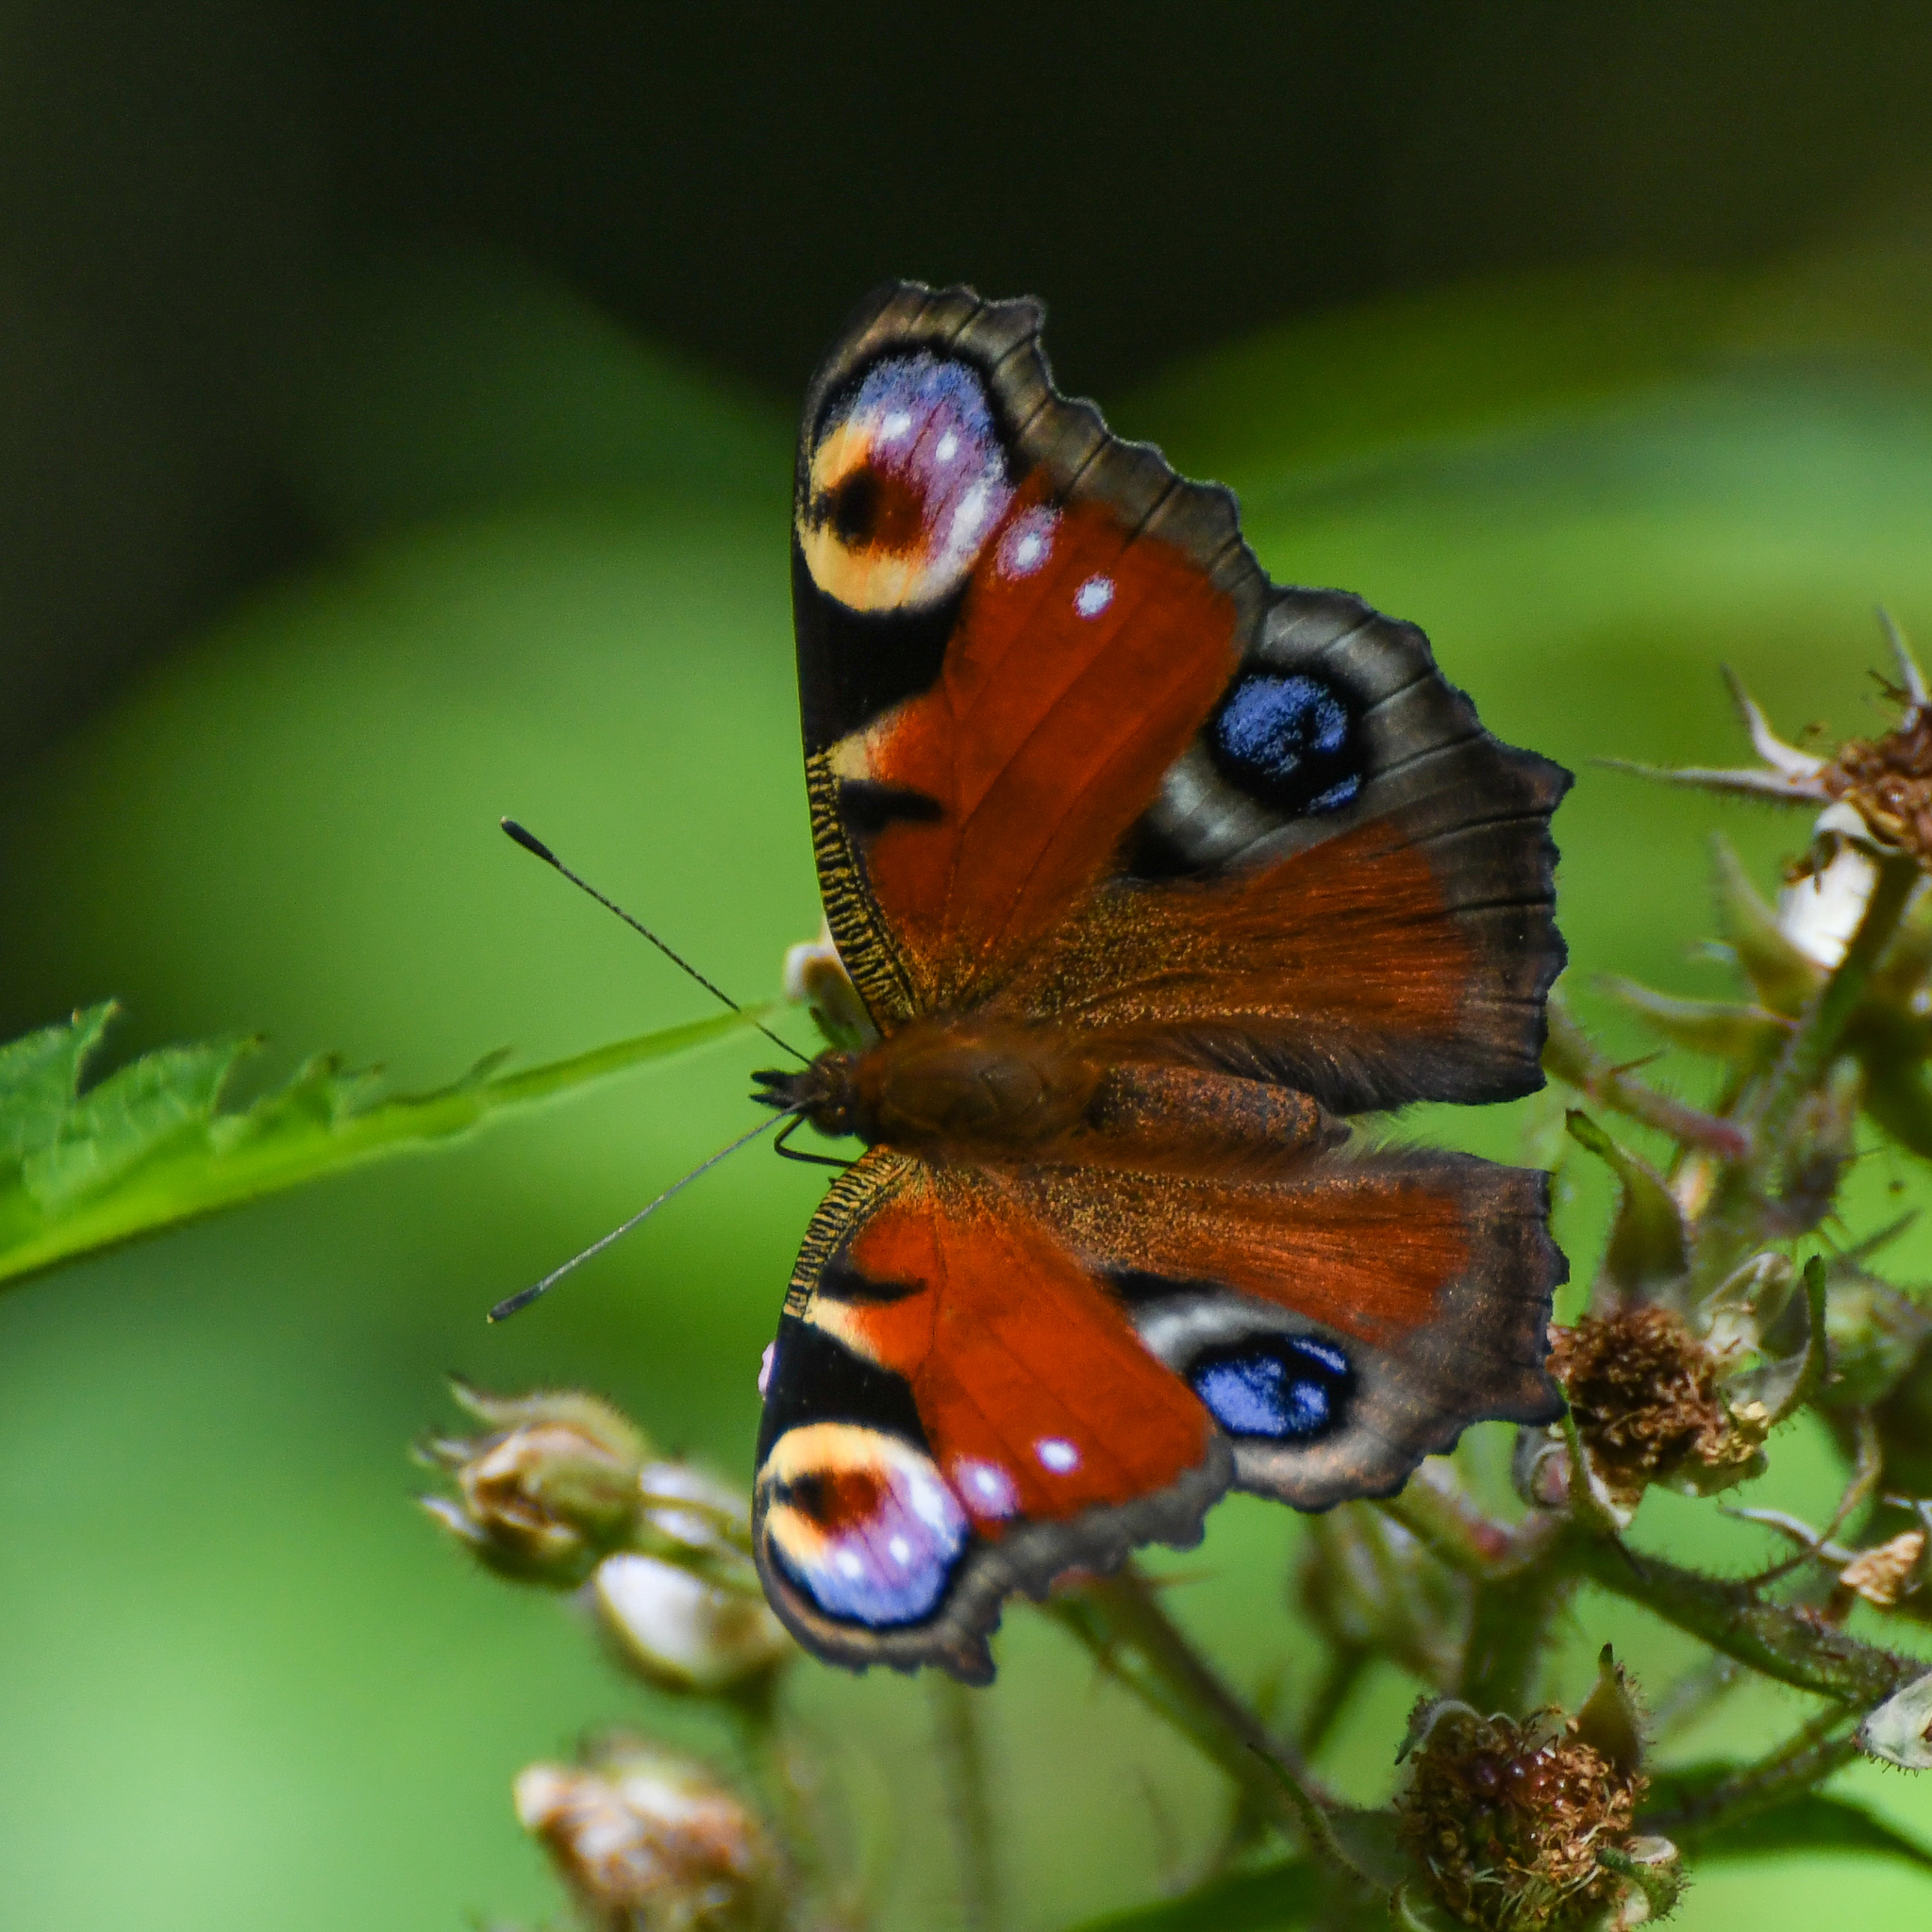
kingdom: Animalia
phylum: Arthropoda
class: Insecta
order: Lepidoptera
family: Nymphalidae
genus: Aglais
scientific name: Aglais io
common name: Peacock
